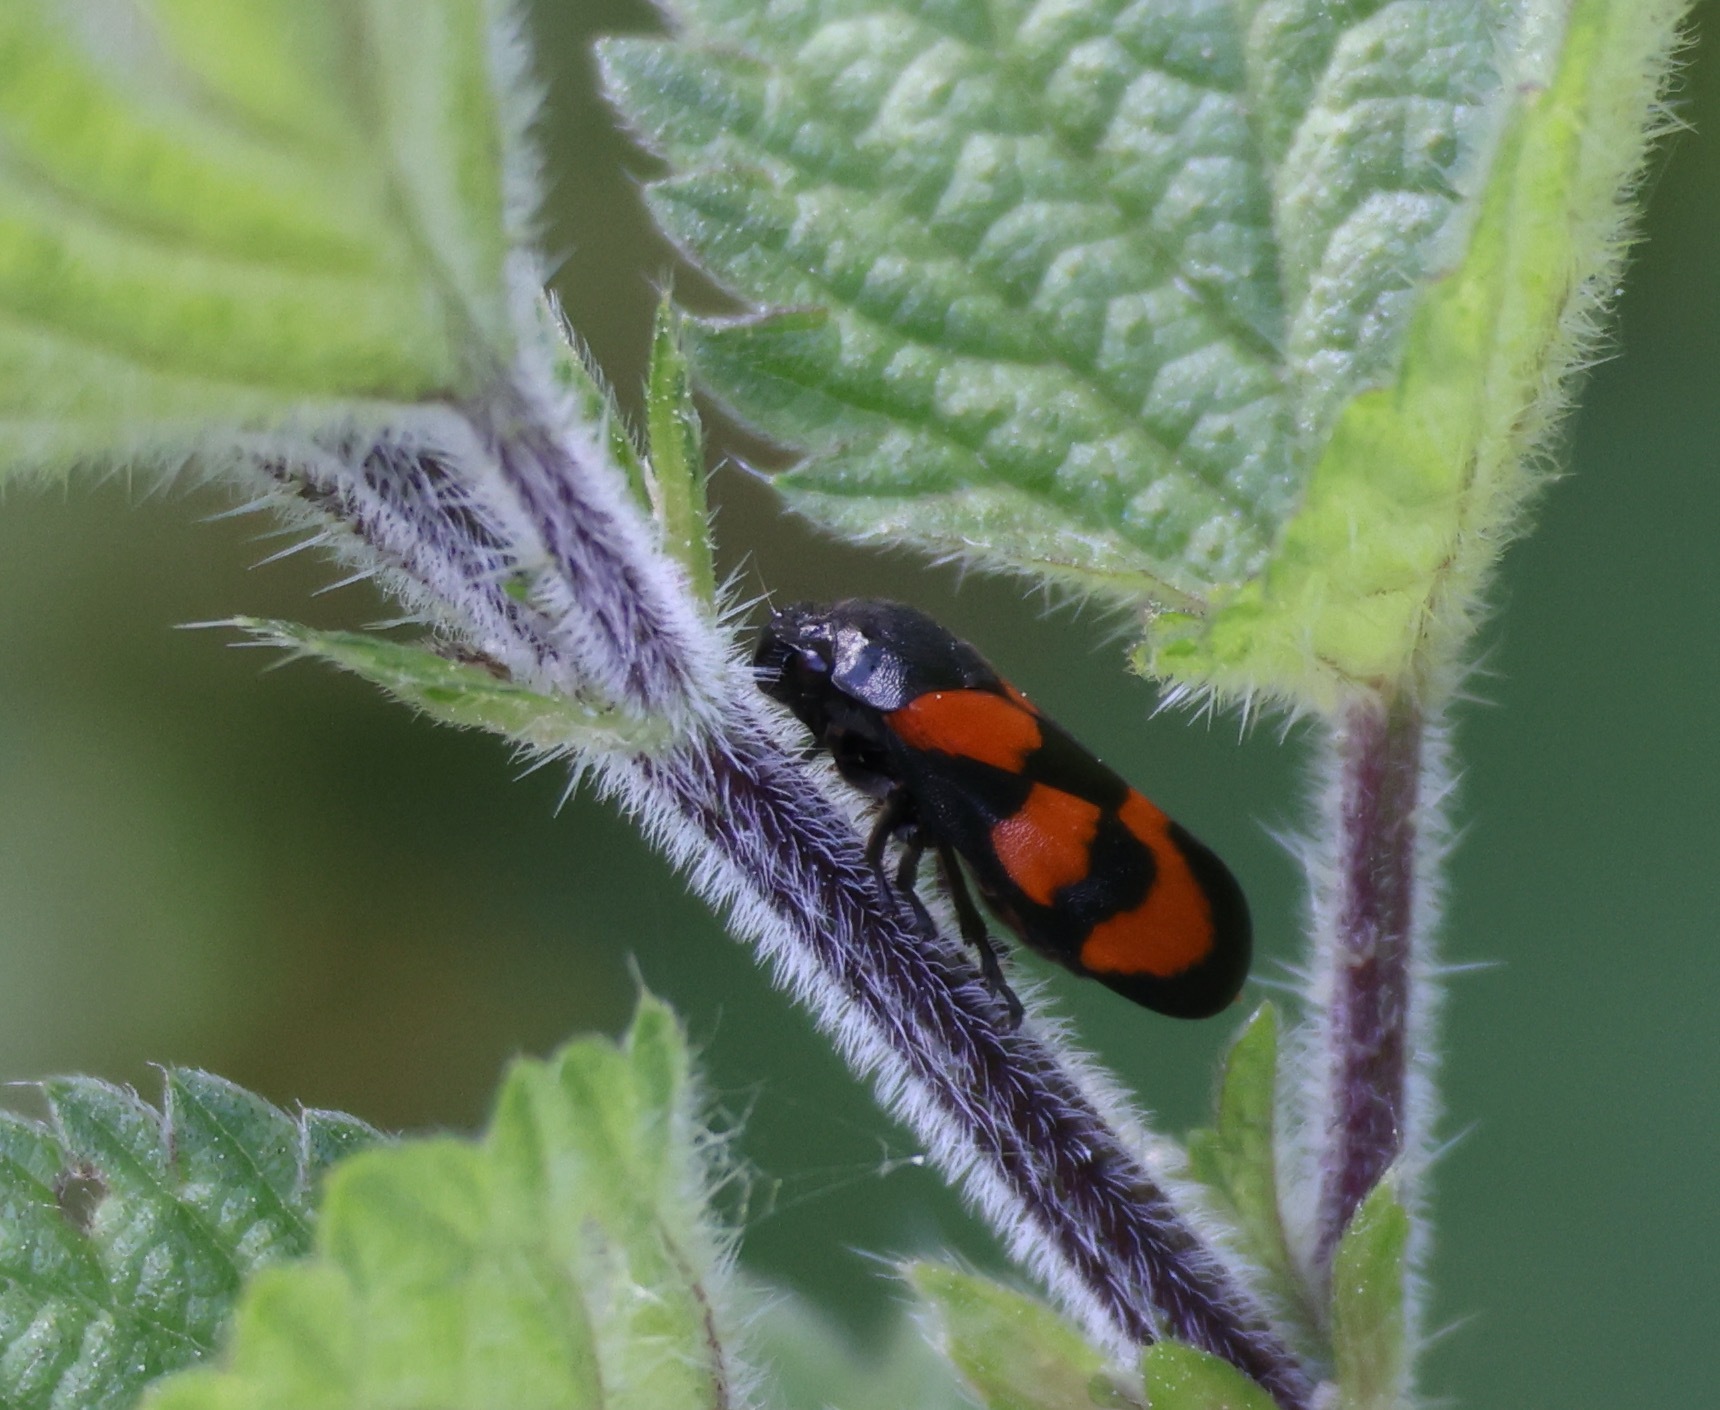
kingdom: Animalia
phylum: Arthropoda
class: Insecta
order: Hemiptera
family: Cercopidae
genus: Cercopis
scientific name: Cercopis vulnerata
